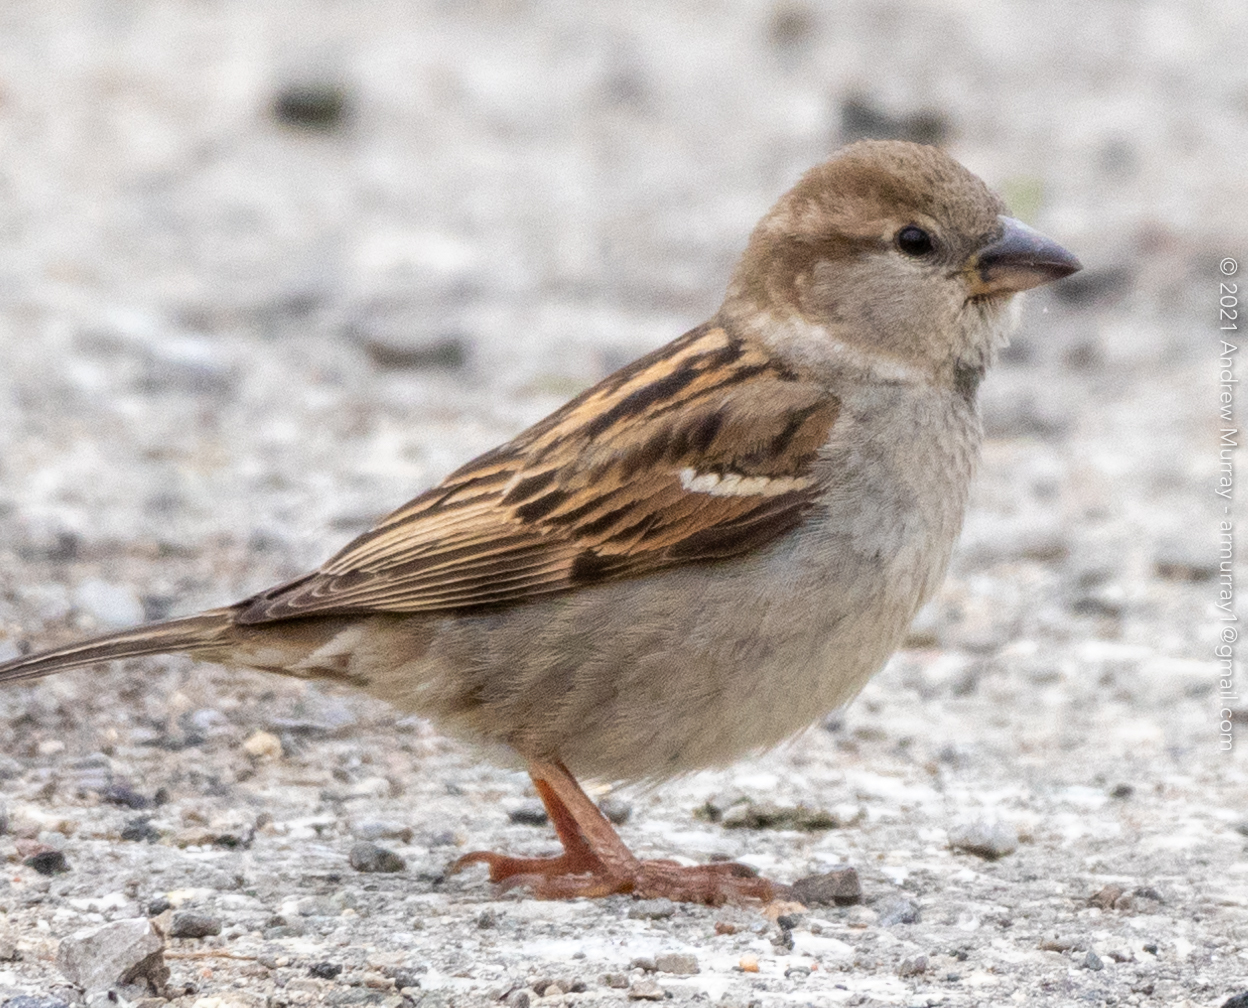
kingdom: Animalia
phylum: Chordata
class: Aves
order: Passeriformes
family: Passeridae
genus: Passer
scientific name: Passer domesticus
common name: House sparrow
